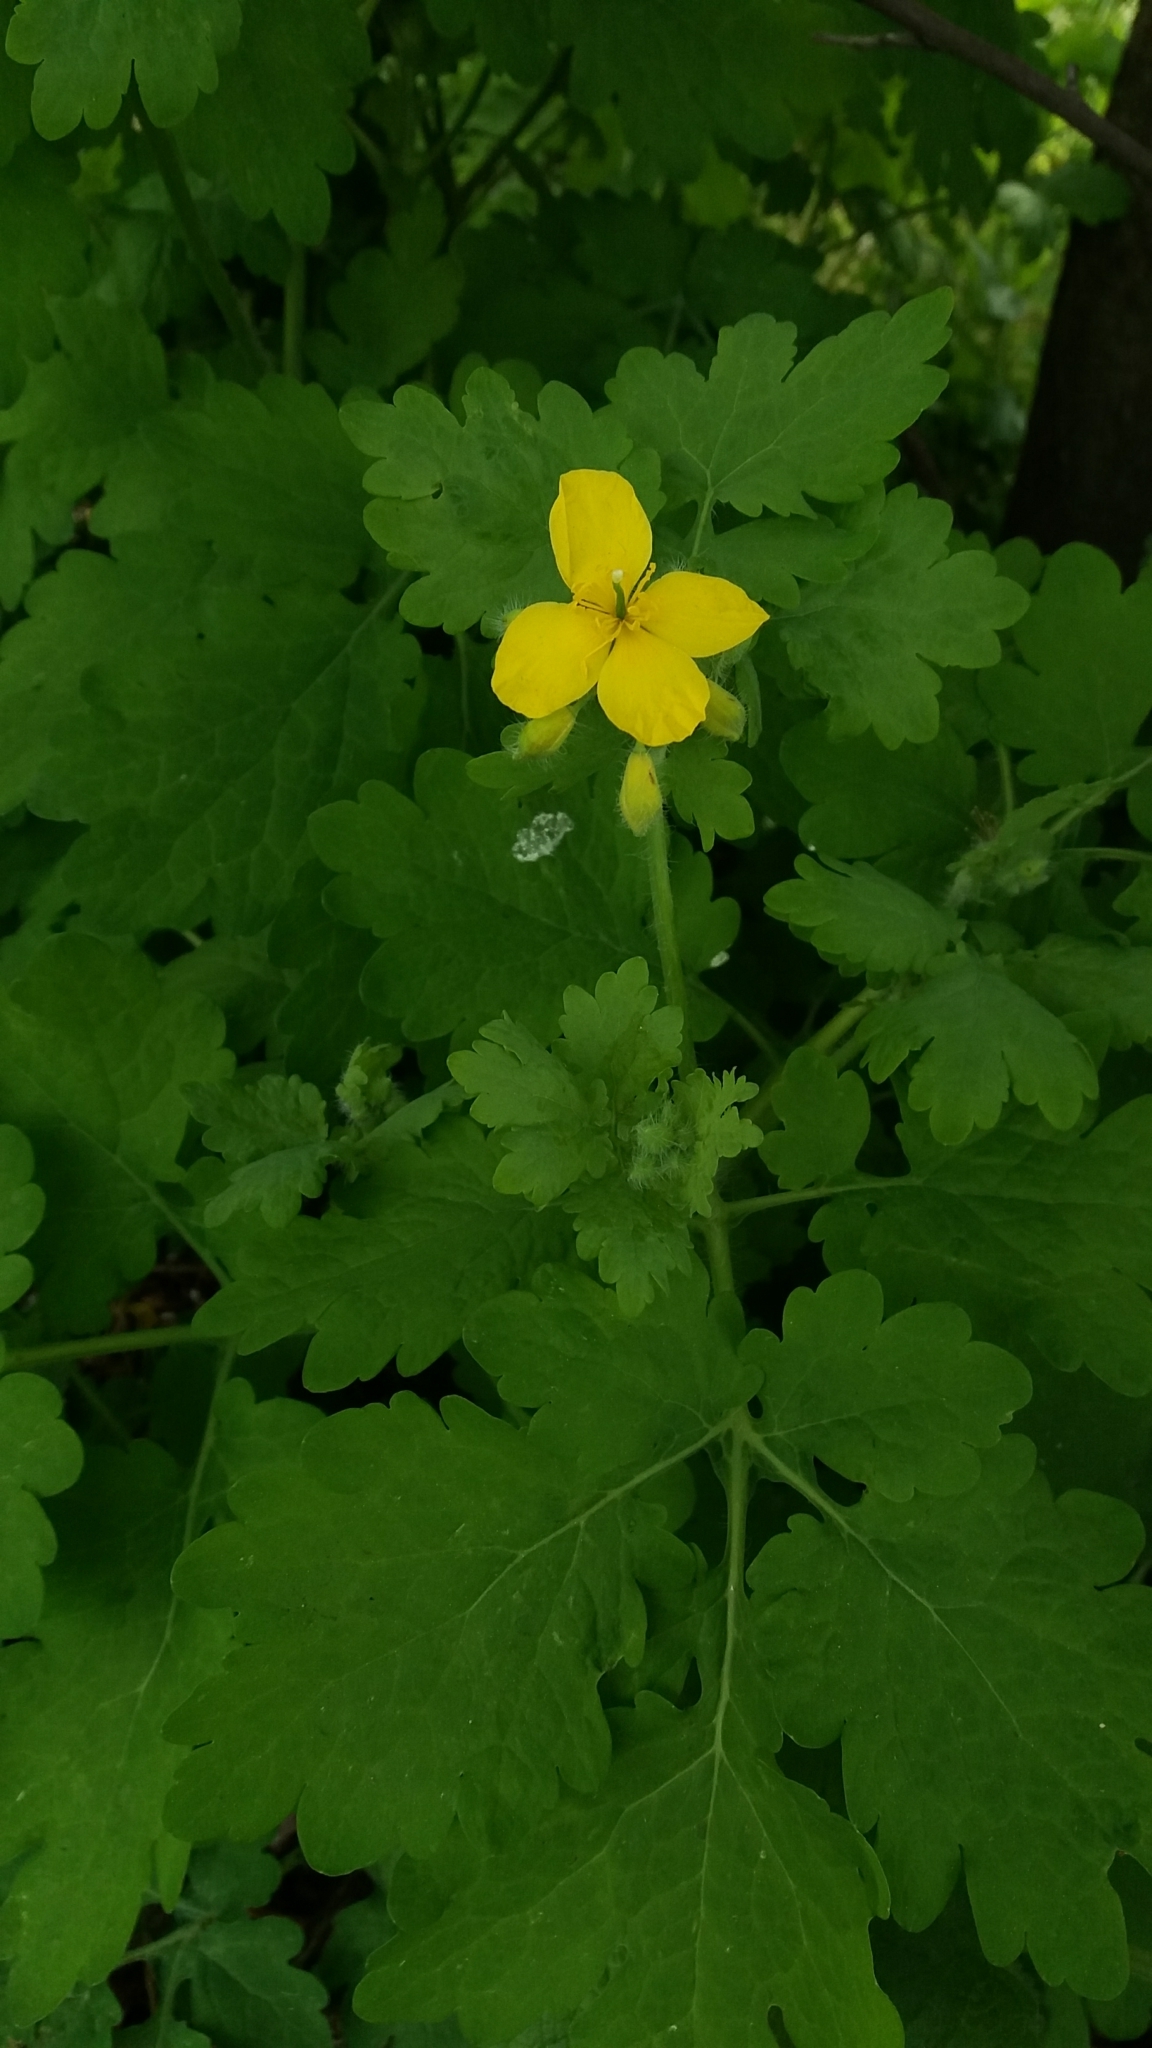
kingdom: Plantae
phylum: Tracheophyta
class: Magnoliopsida
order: Ranunculales
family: Papaveraceae
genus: Chelidonium
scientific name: Chelidonium majus
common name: Greater celandine
